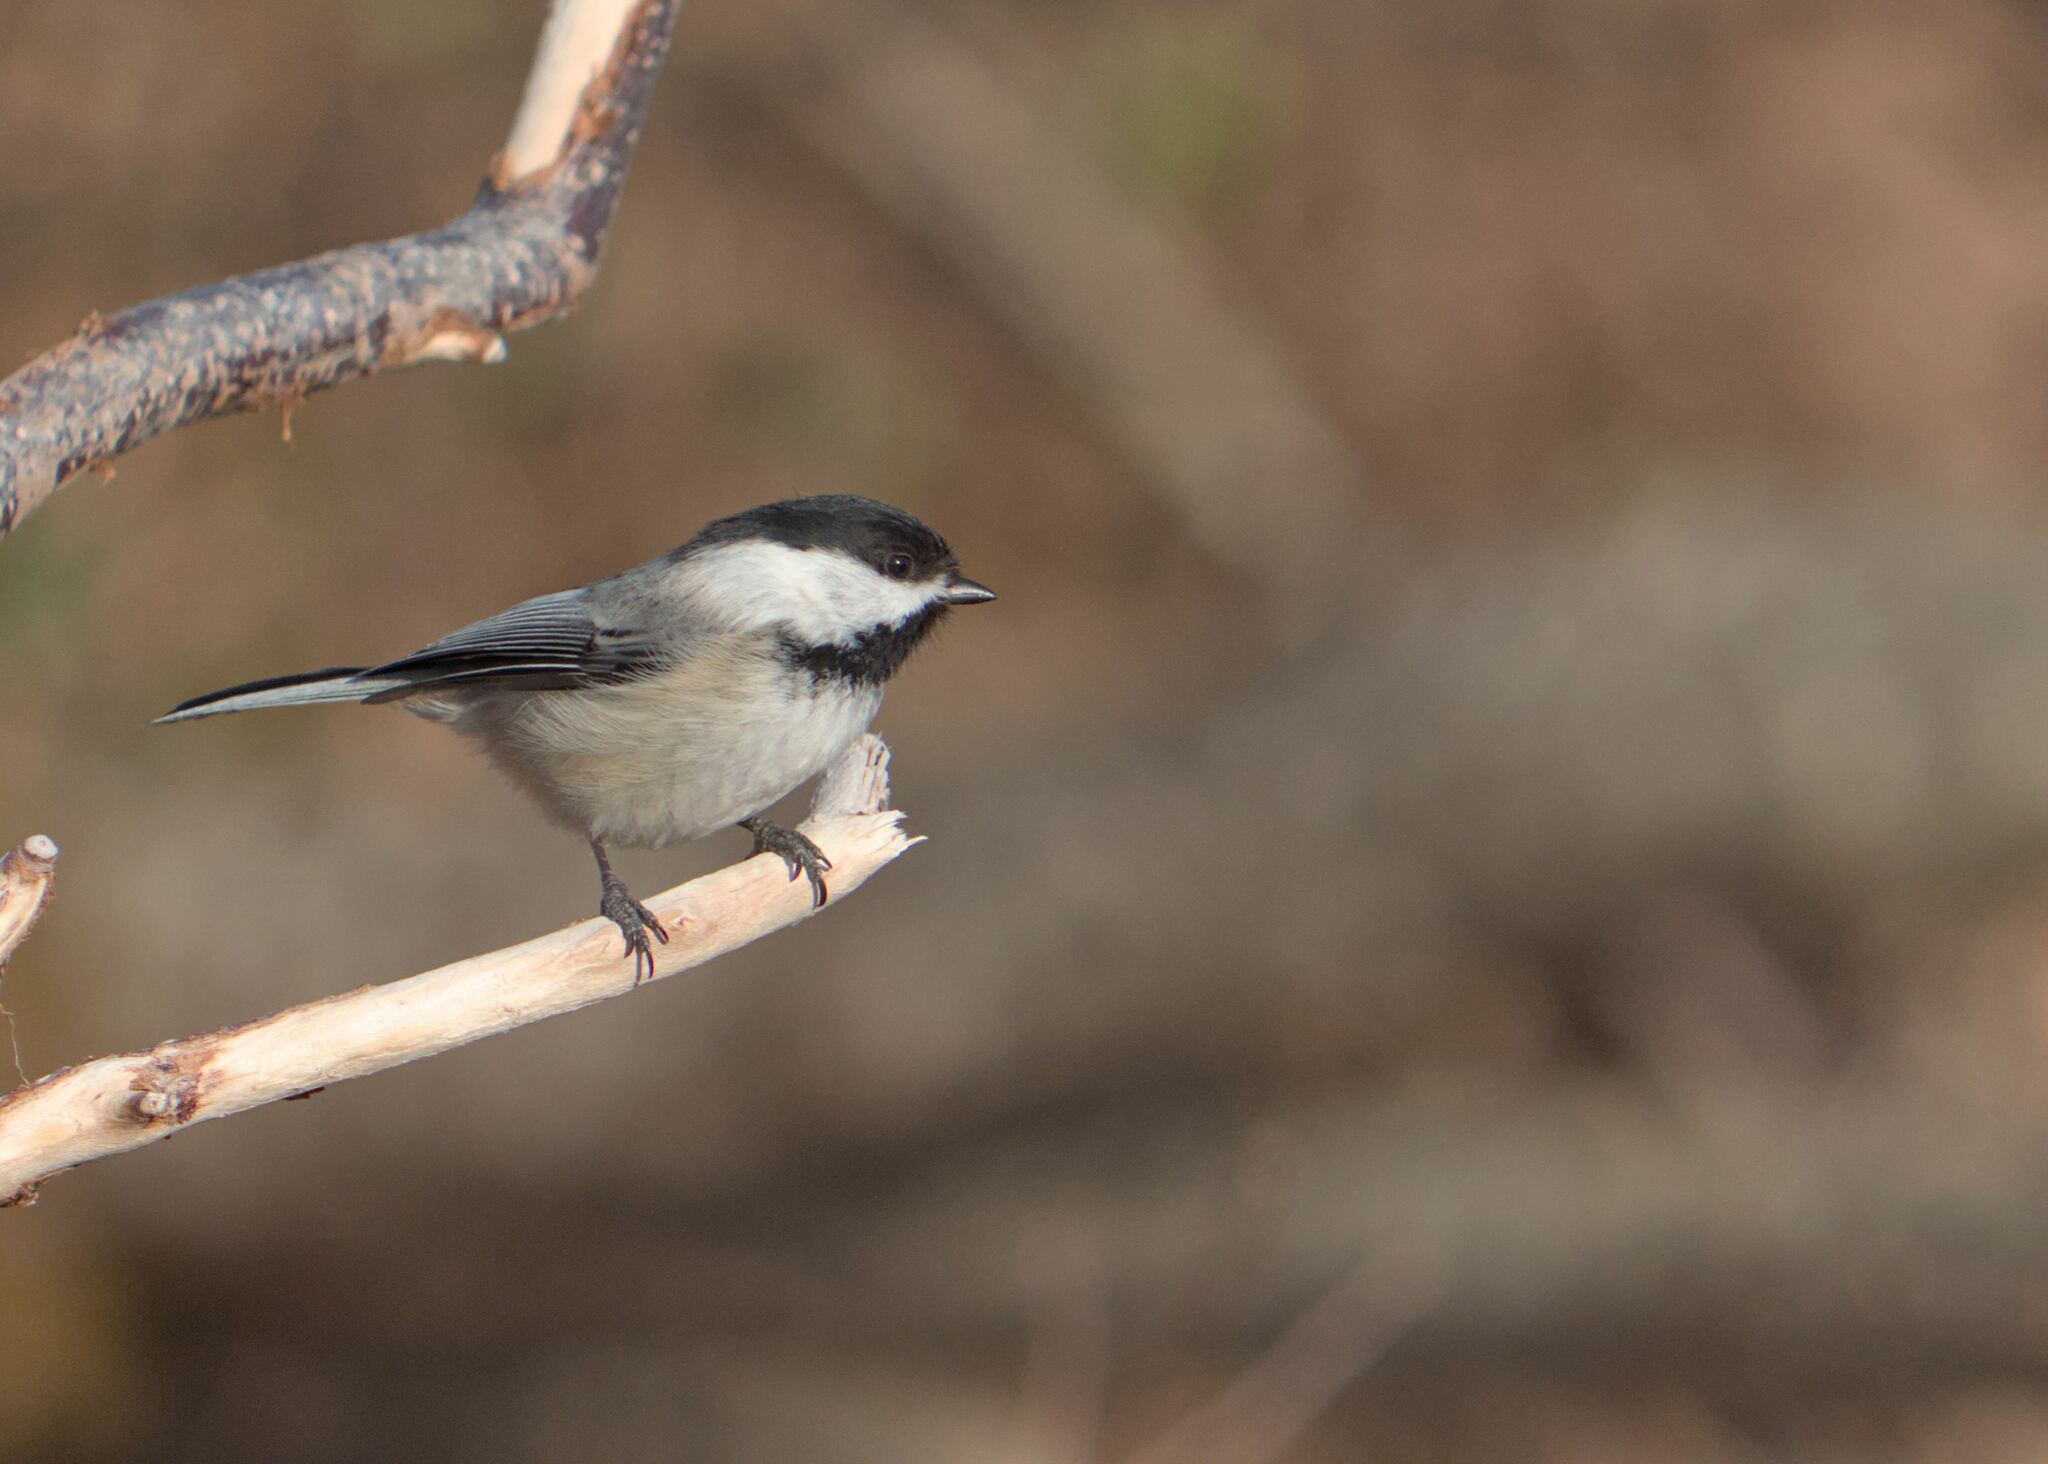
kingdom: Animalia
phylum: Chordata
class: Aves
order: Passeriformes
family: Paridae
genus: Poecile
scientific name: Poecile atricapillus
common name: Black-capped chickadee
